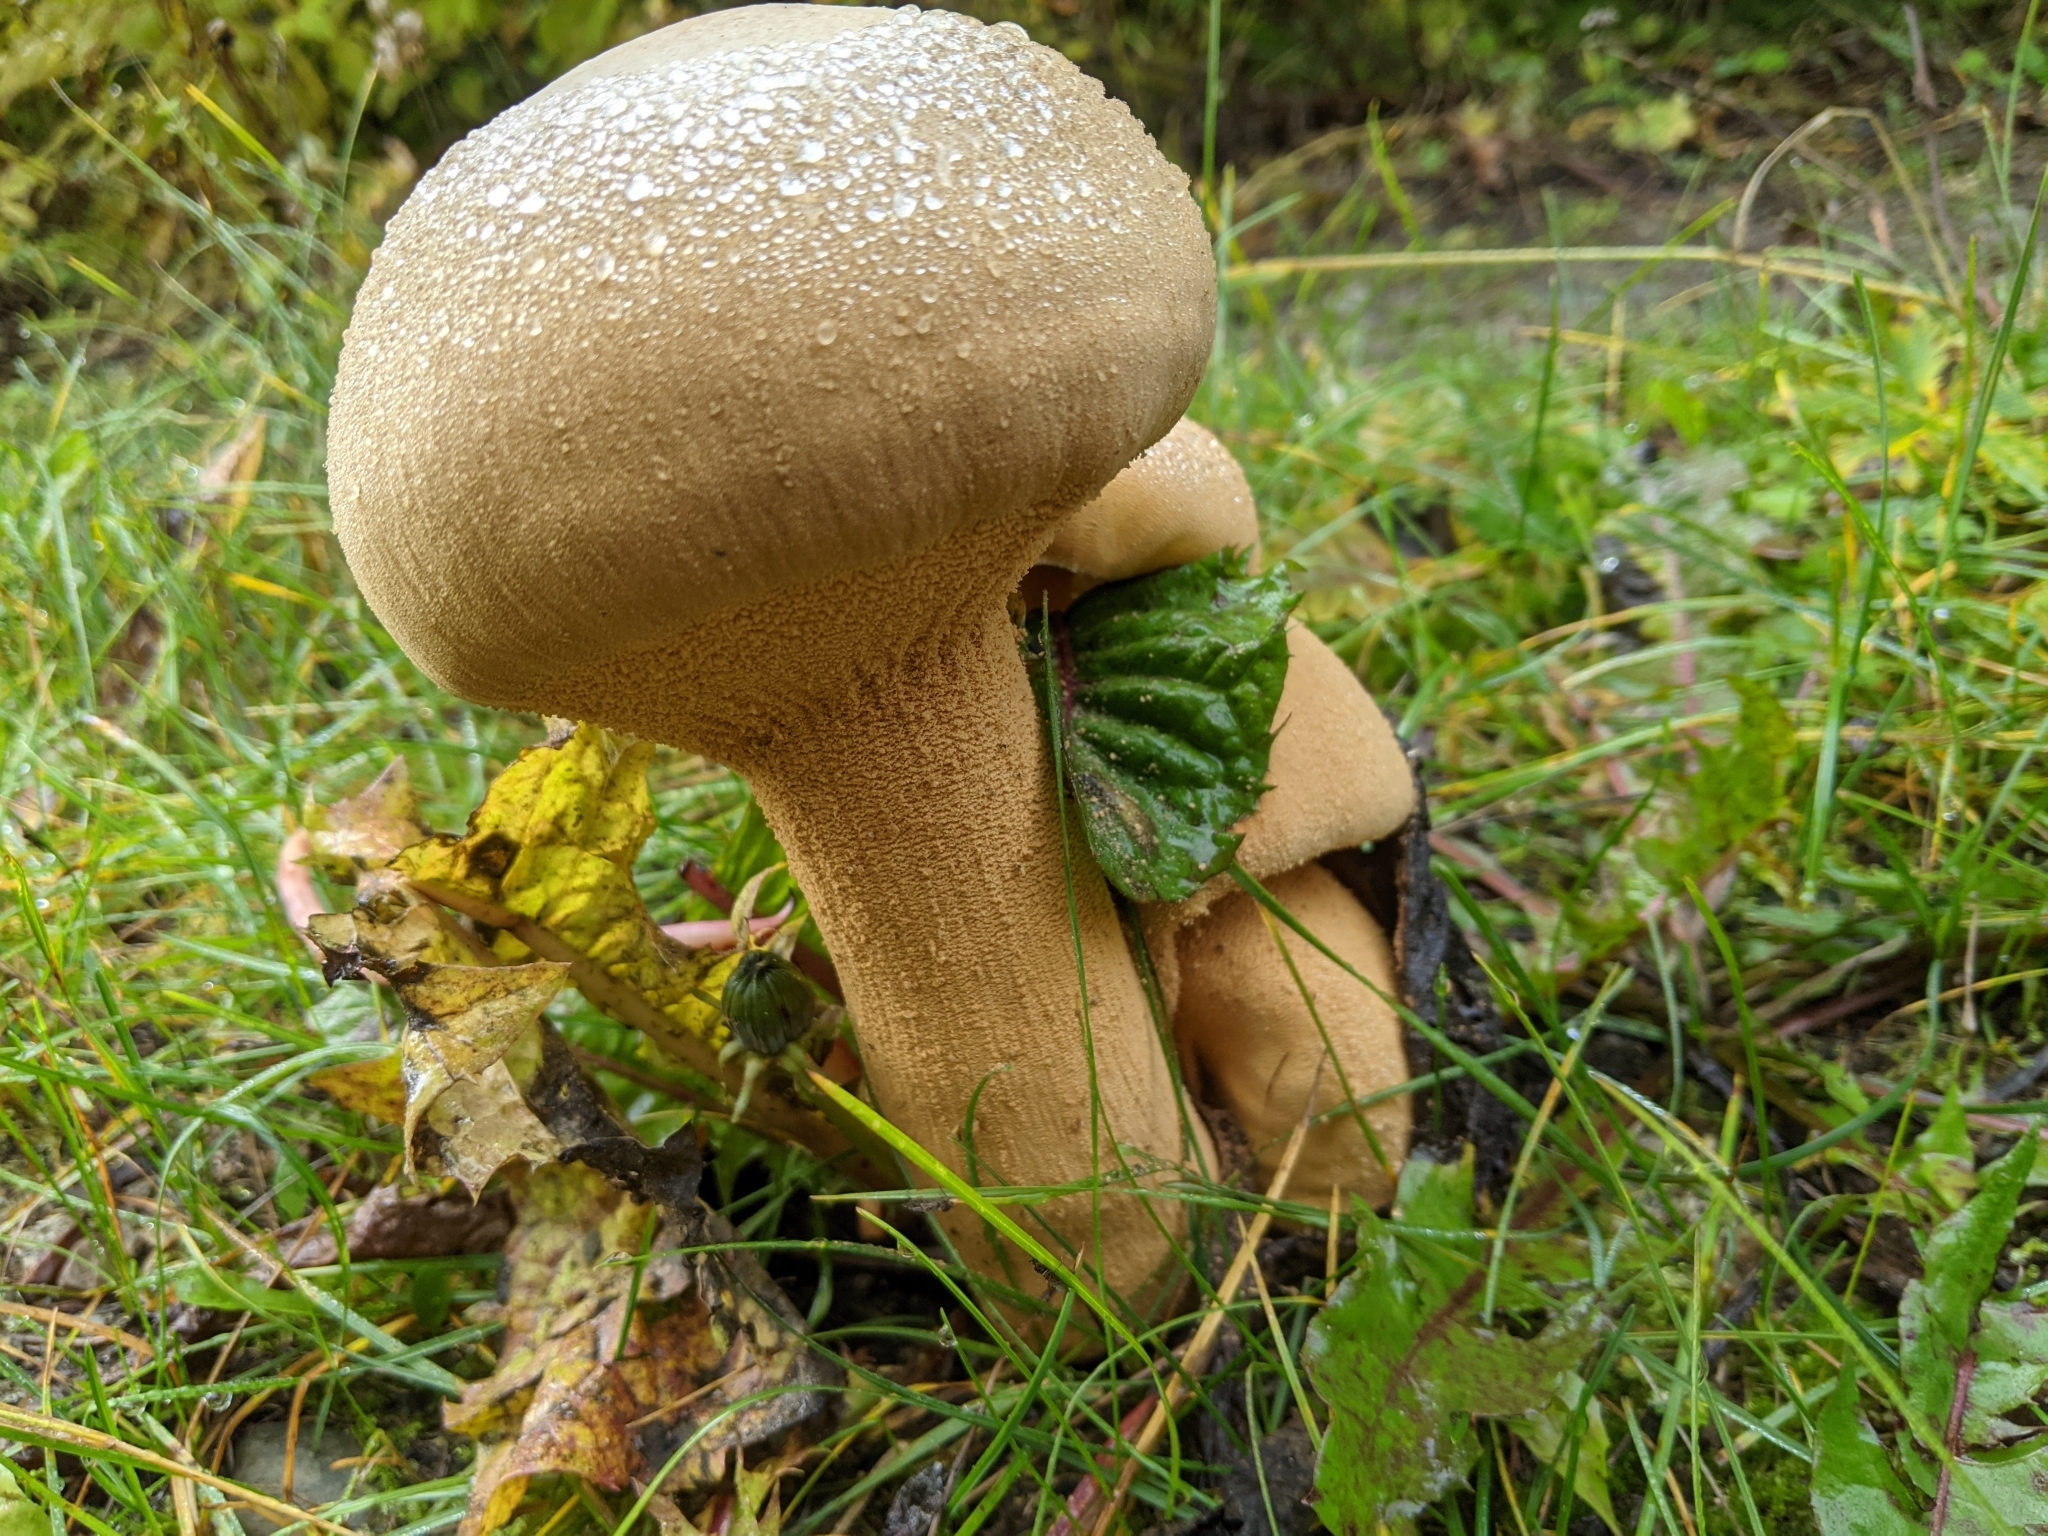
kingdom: Fungi
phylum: Basidiomycota
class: Agaricomycetes
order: Agaricales
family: Tricholomataceae
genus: Phaeolepiota
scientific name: Phaeolepiota aurea
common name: Golden bootleg
